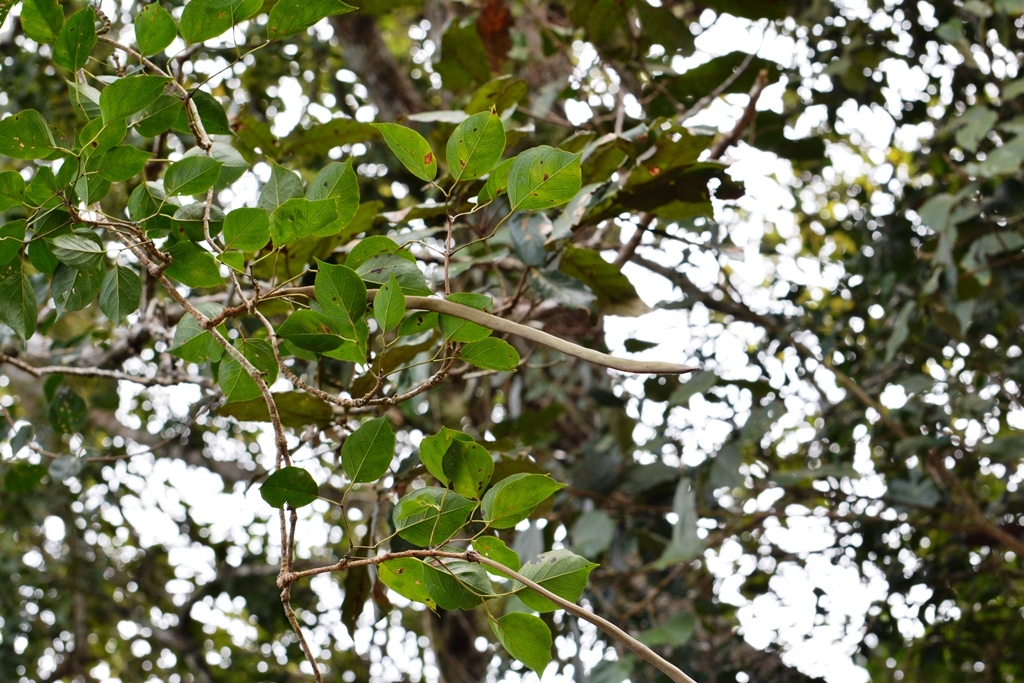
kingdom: Plantae
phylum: Tracheophyta
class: Magnoliopsida
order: Lamiales
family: Bignoniaceae
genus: Fridericia
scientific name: Fridericia chica
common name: Cricketvine
